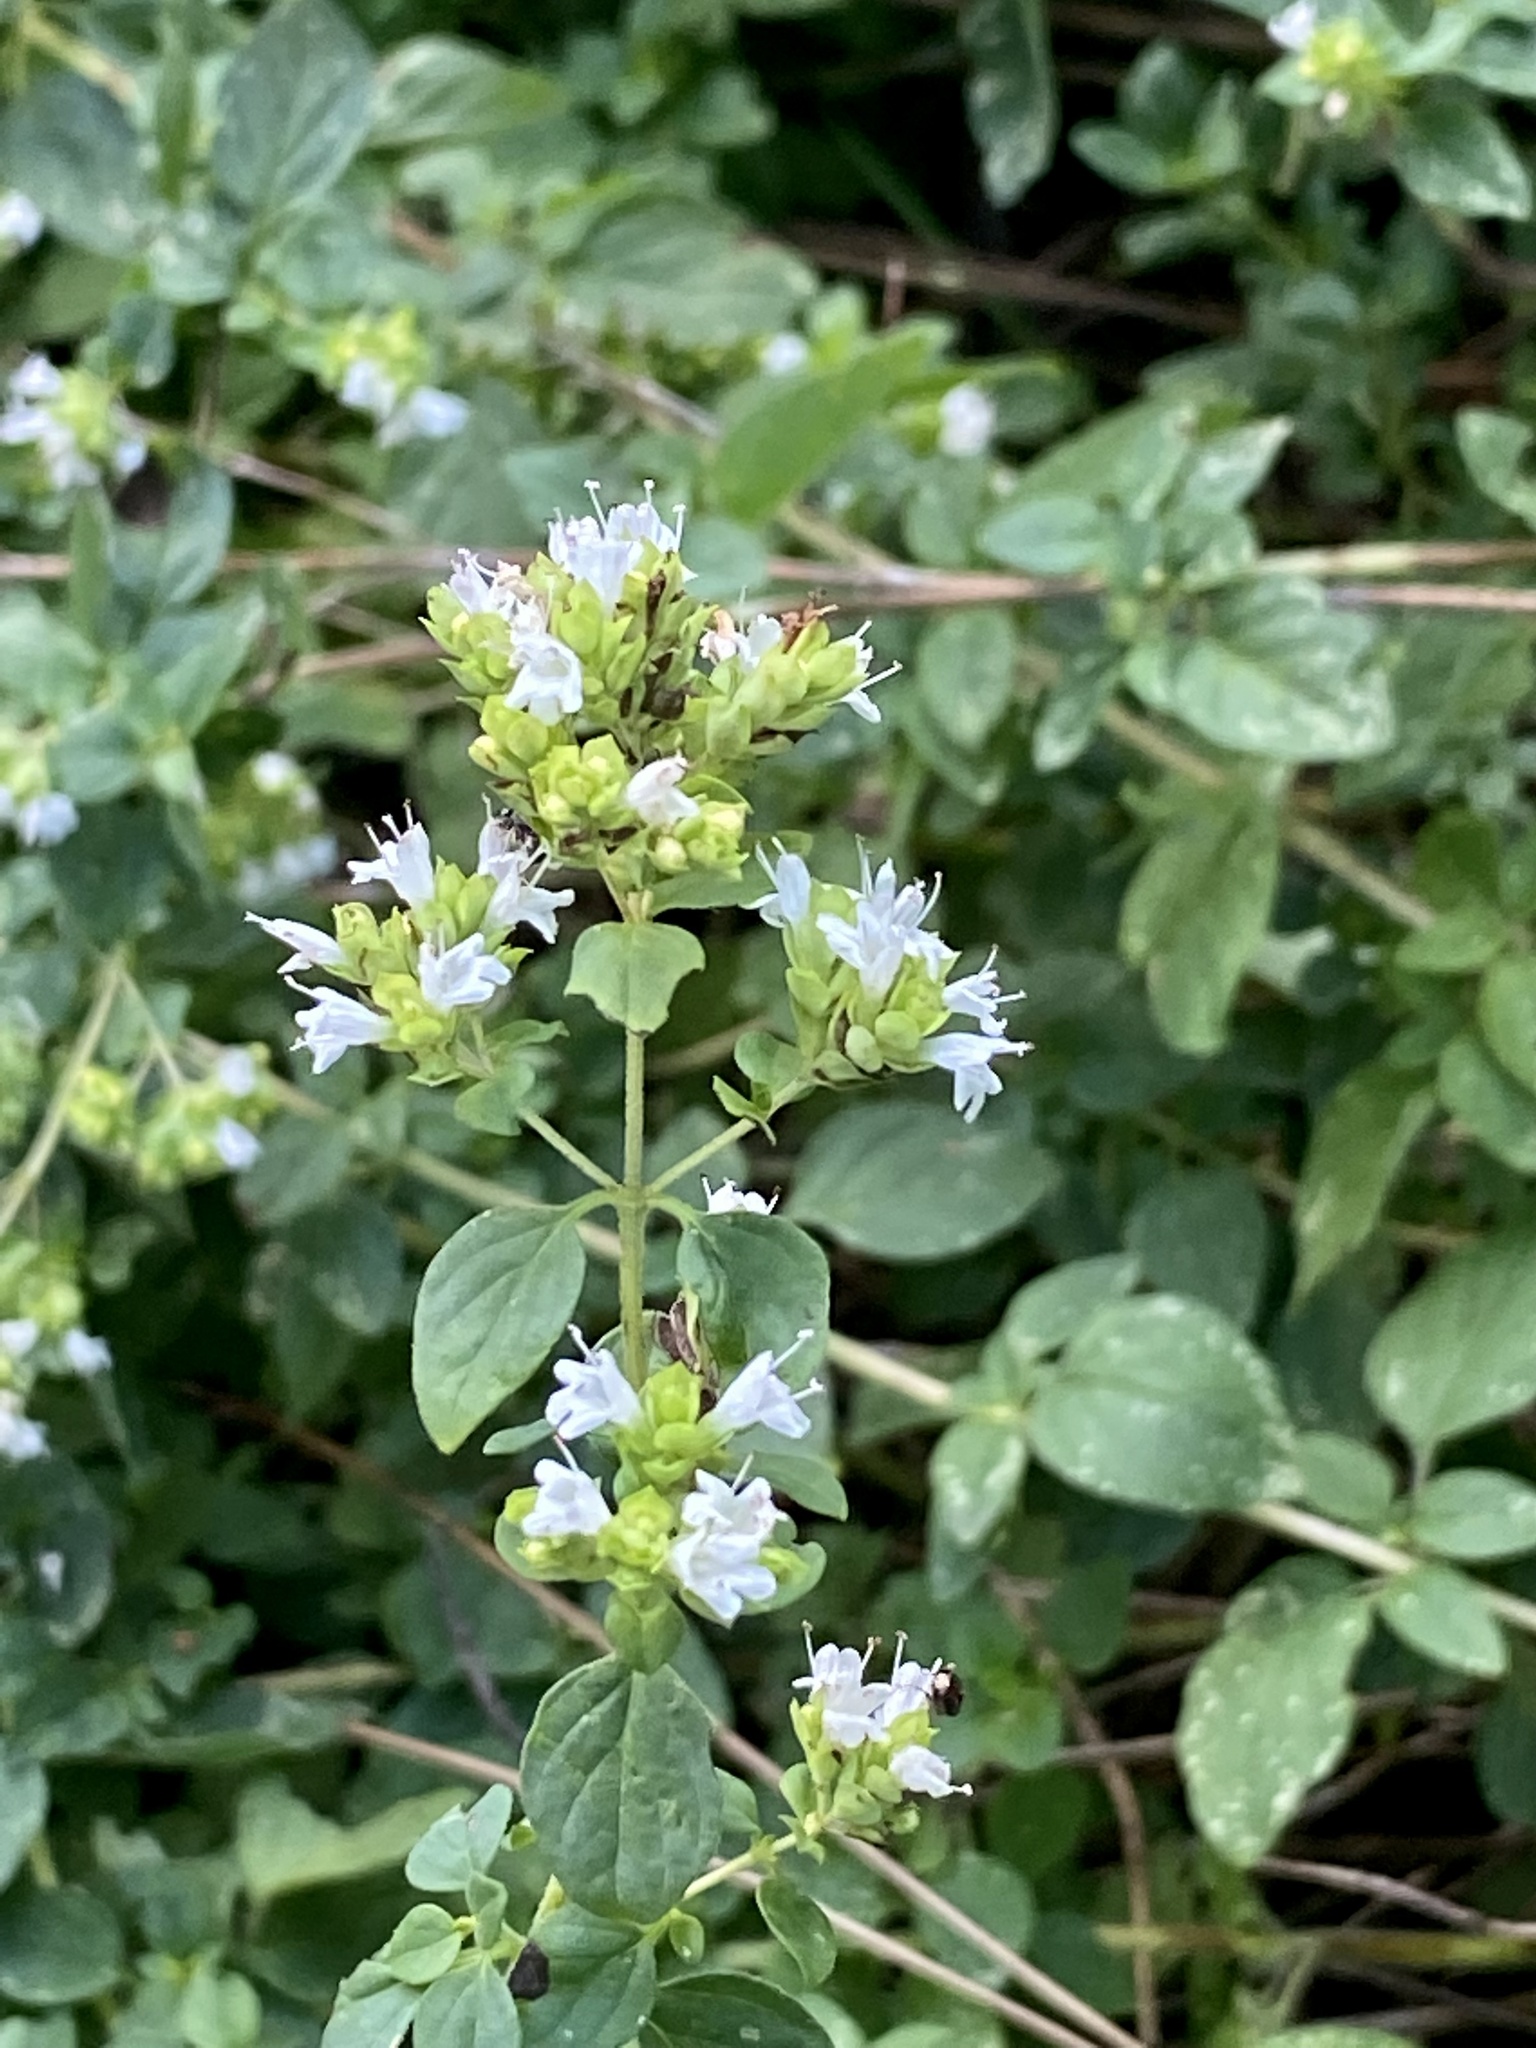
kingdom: Plantae
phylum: Tracheophyta
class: Magnoliopsida
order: Lamiales
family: Lamiaceae
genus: Origanum
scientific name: Origanum vulgare
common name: Wild marjoram
